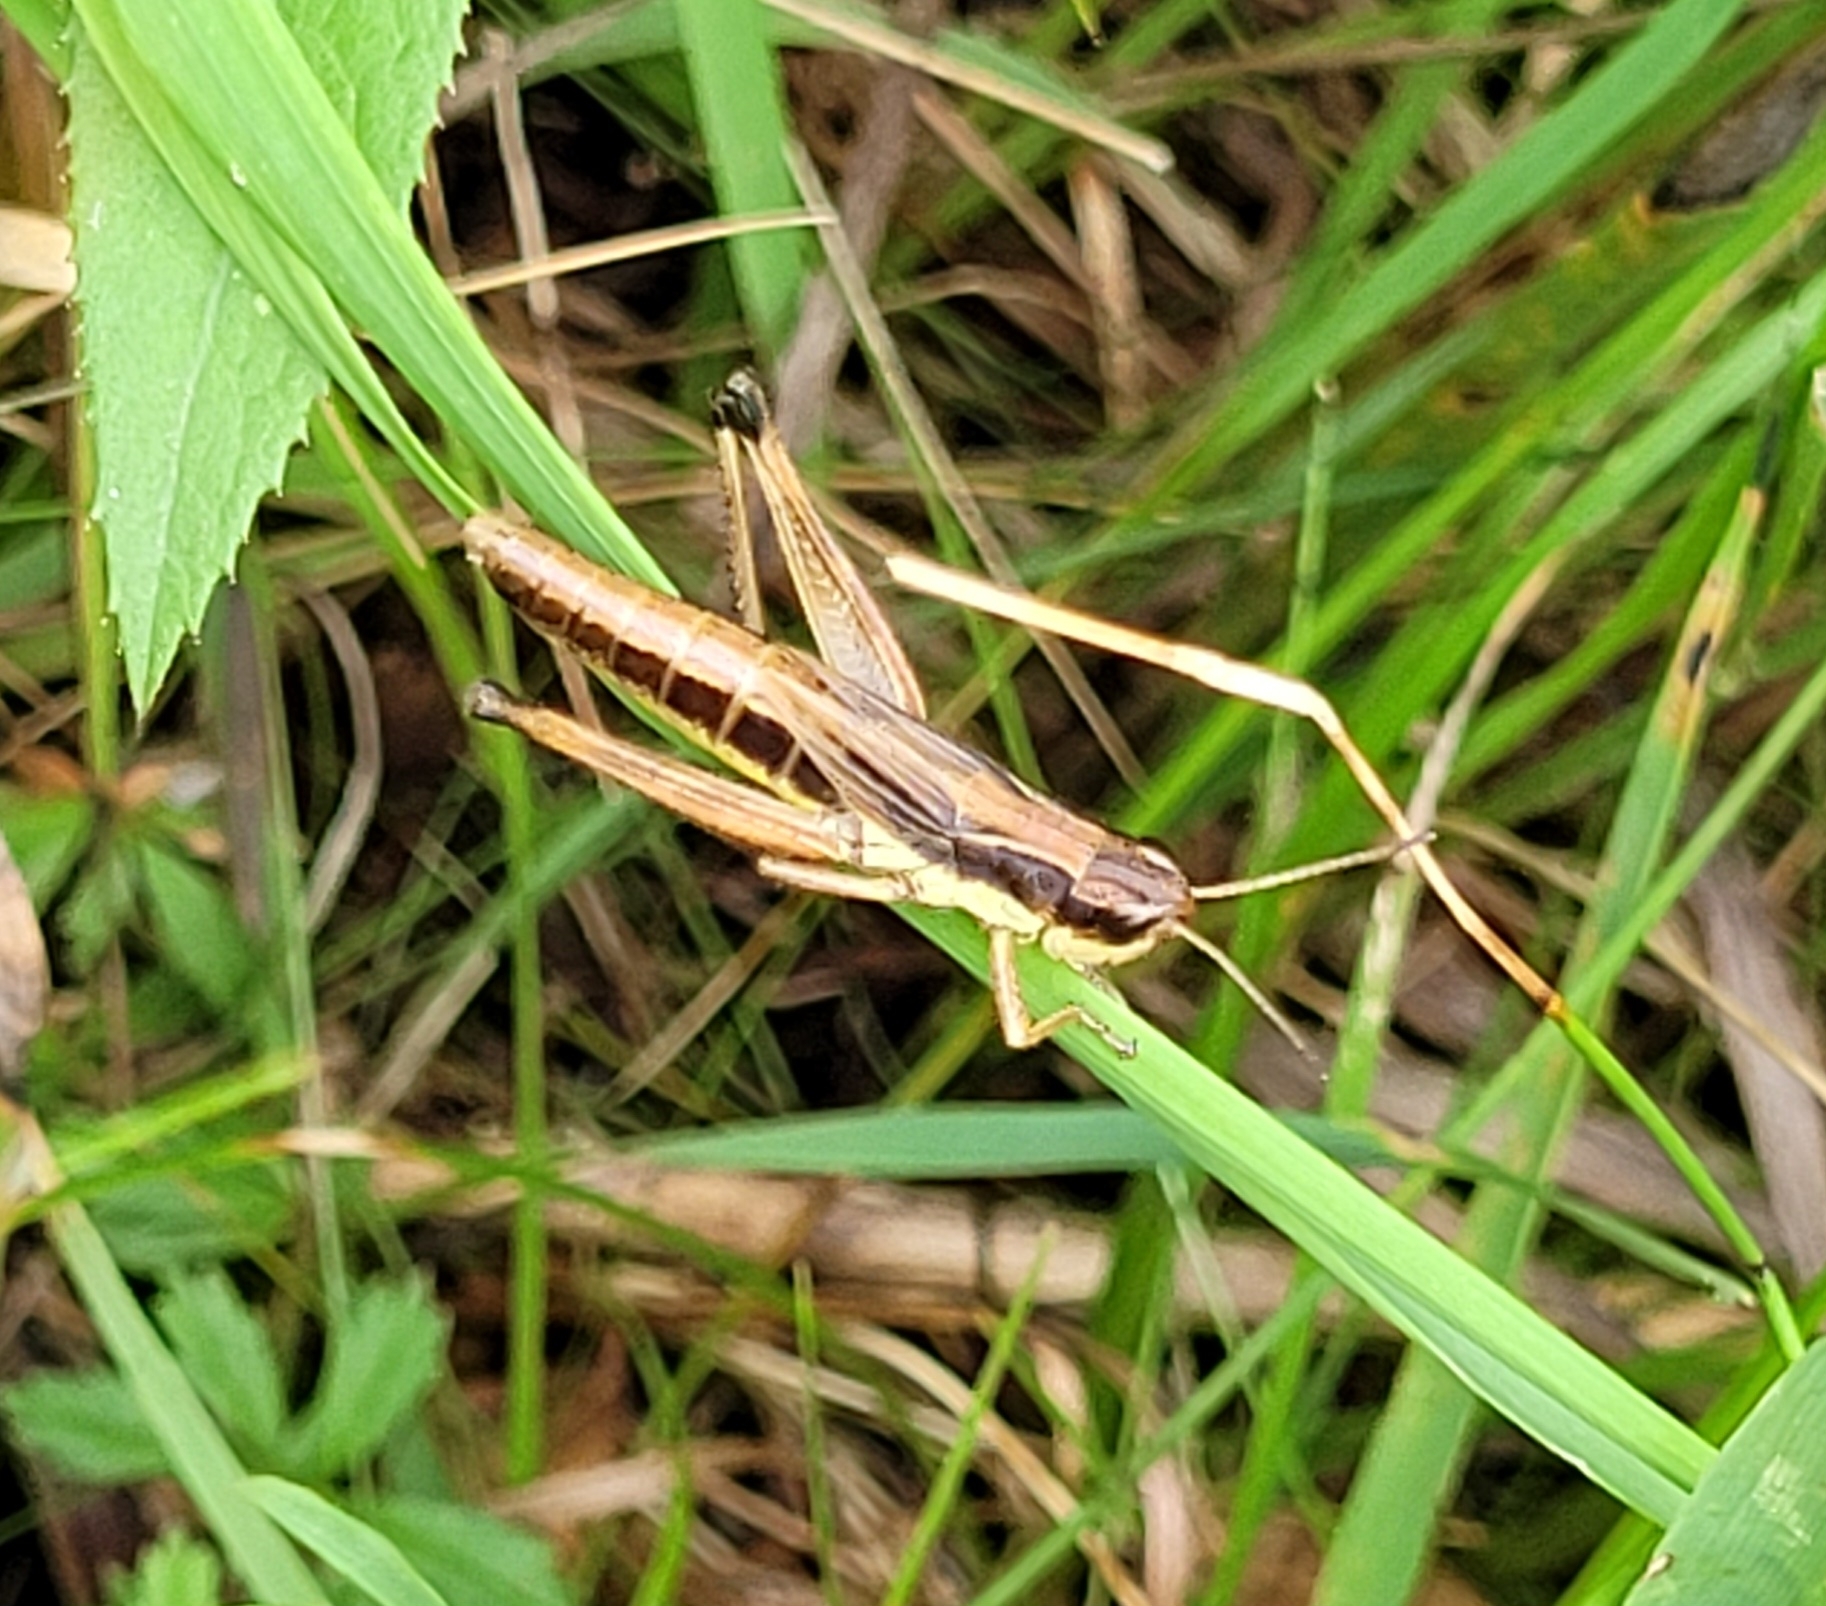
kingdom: Animalia
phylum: Arthropoda
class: Insecta
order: Orthoptera
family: Acrididae
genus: Pseudochorthippus
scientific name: Pseudochorthippus parallelus
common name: Meadow grasshopper
